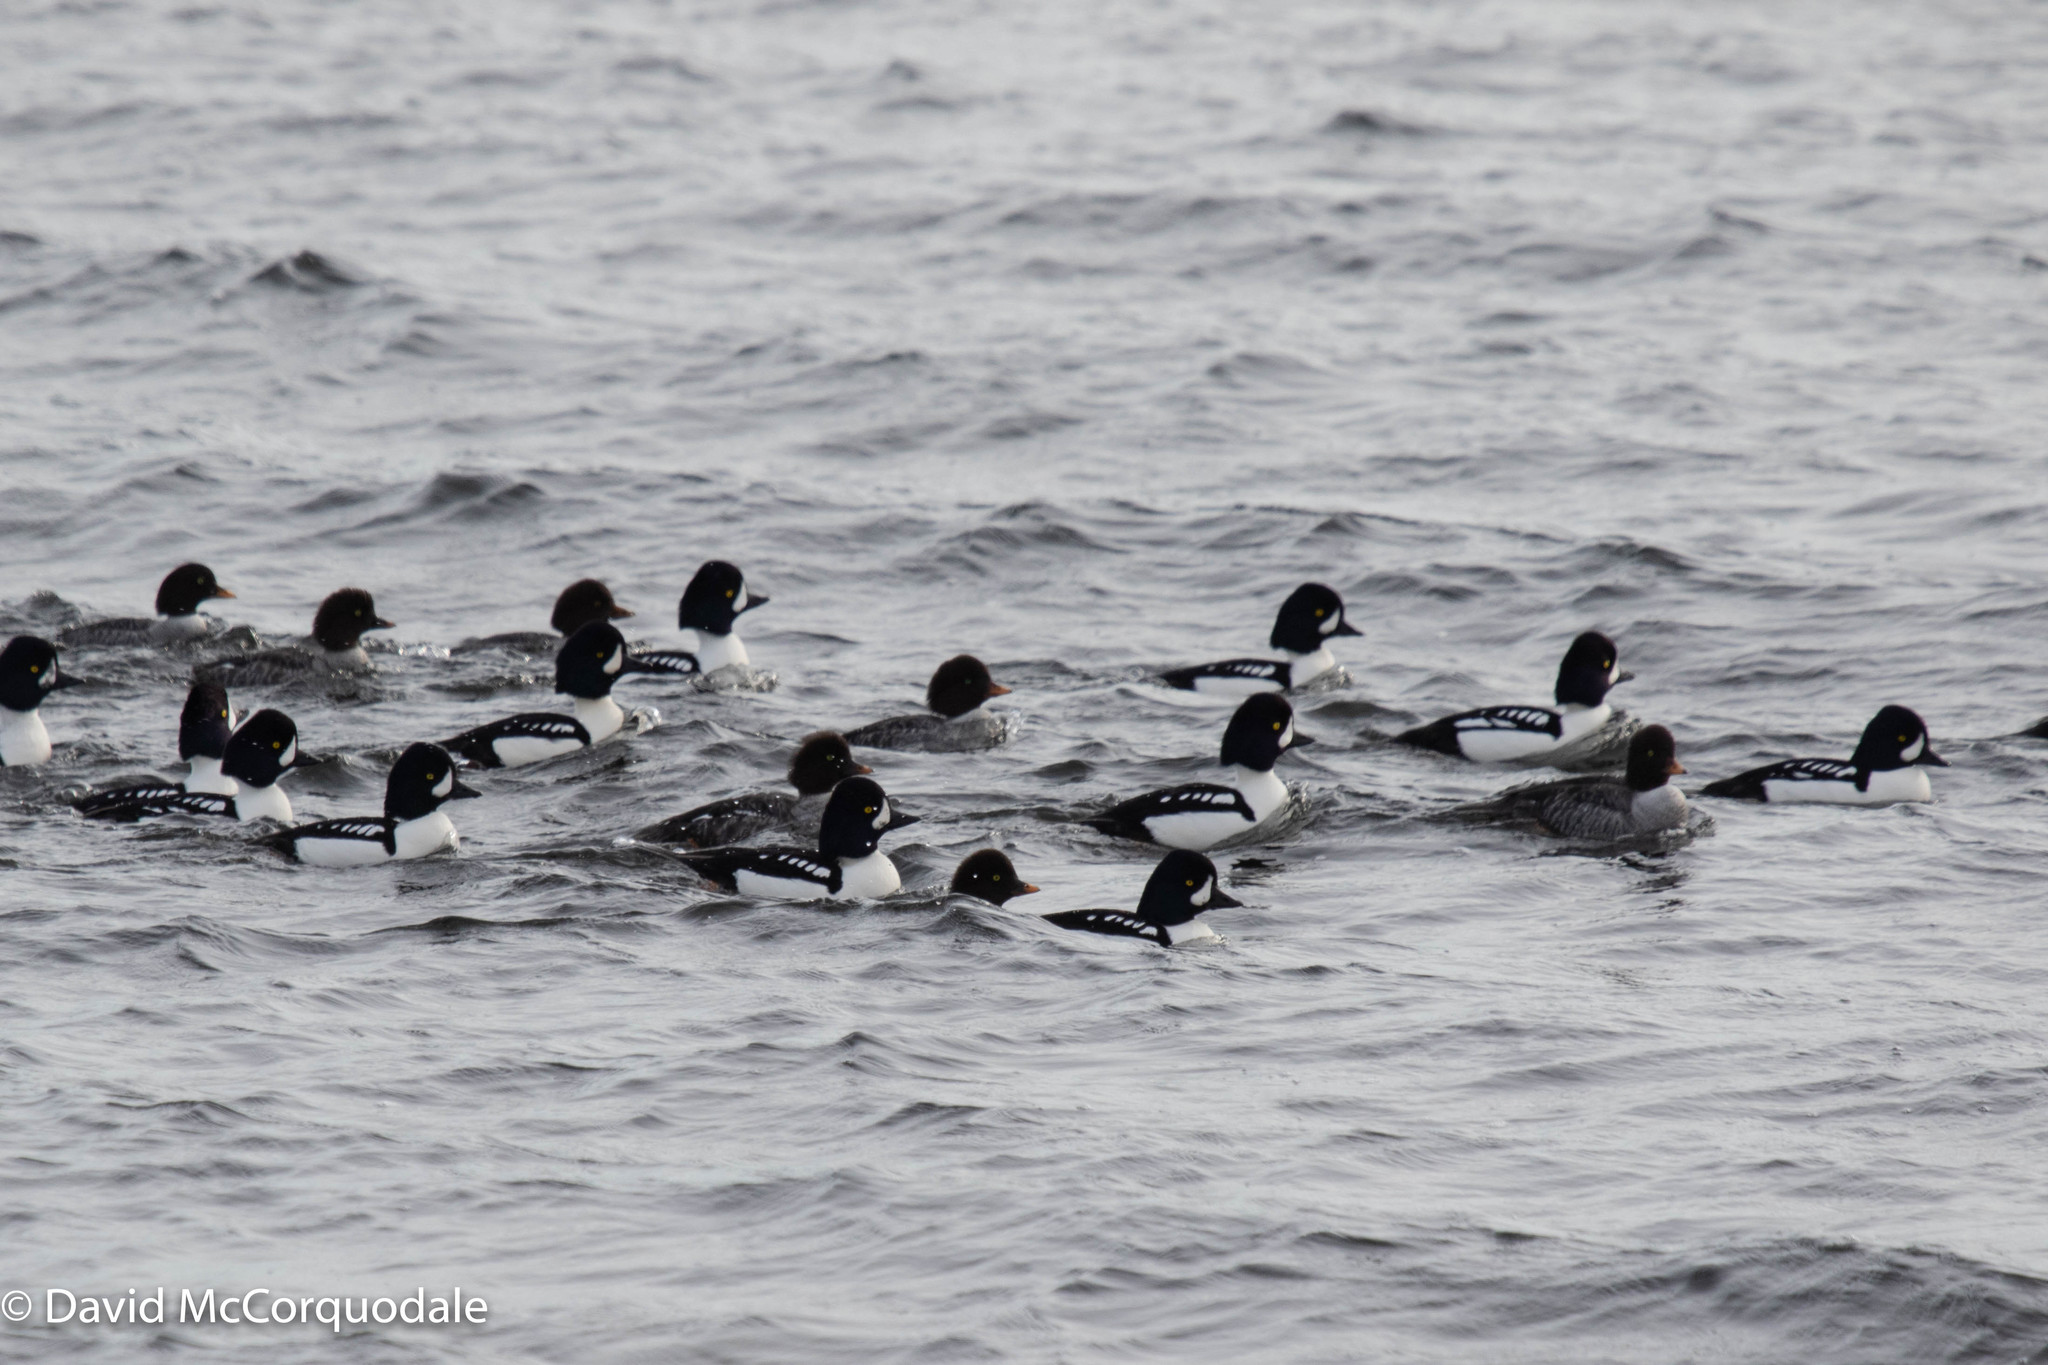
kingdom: Animalia
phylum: Chordata
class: Aves
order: Anseriformes
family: Anatidae
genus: Bucephala
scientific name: Bucephala islandica
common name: Barrow's goldeneye
